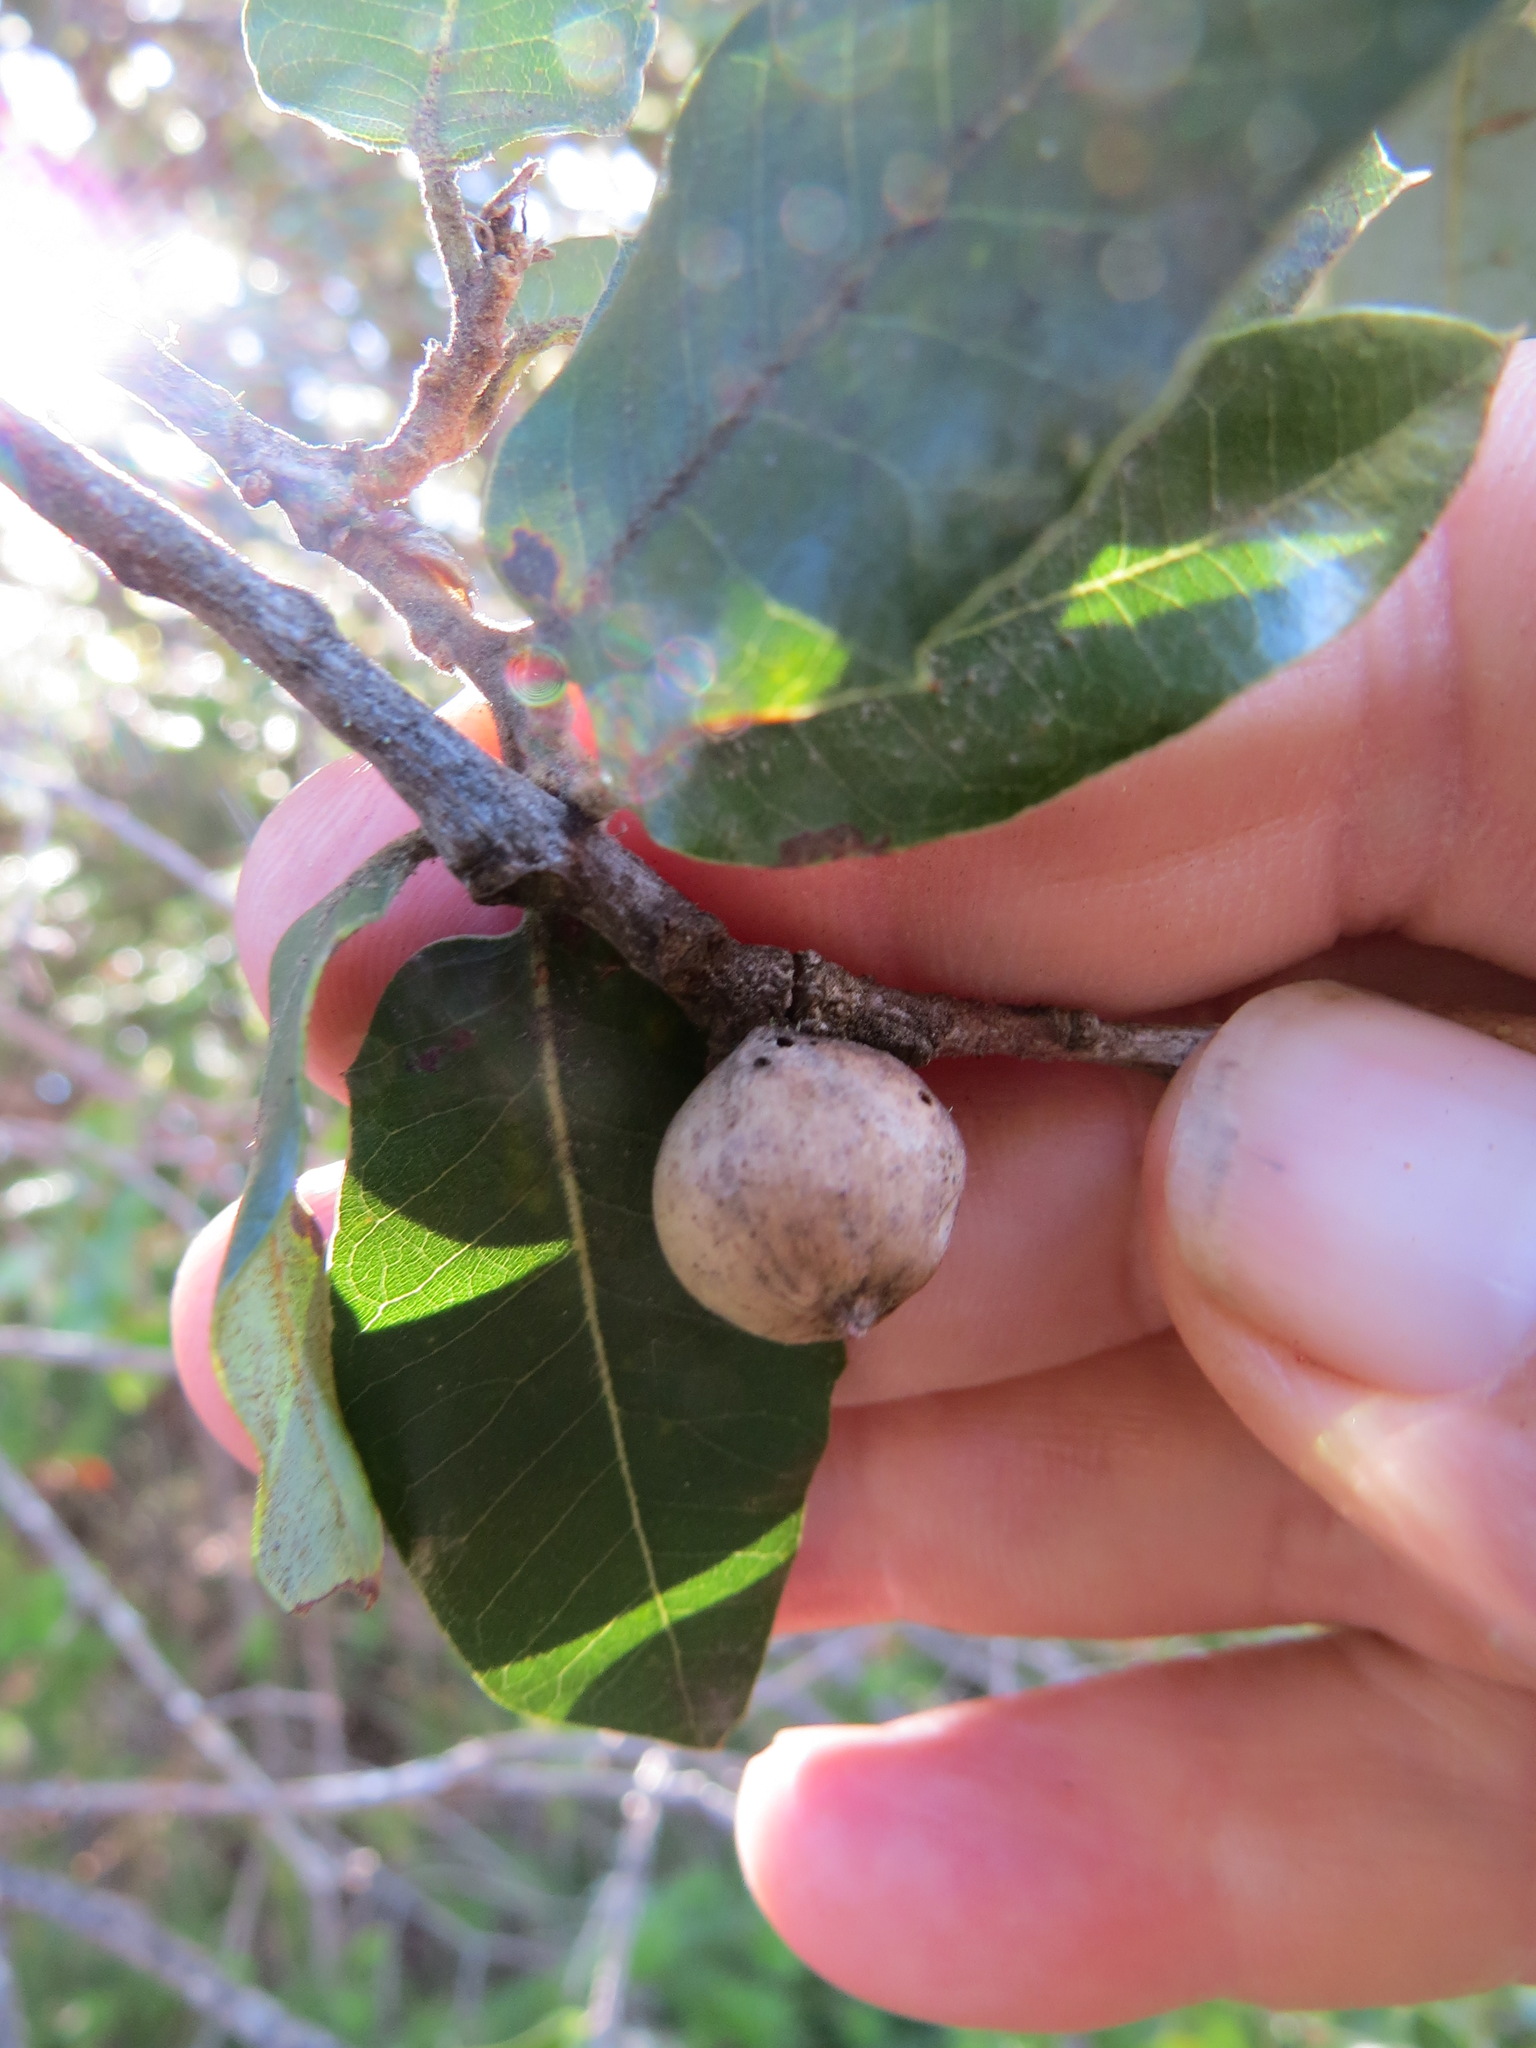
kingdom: Animalia
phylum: Arthropoda
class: Insecta
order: Hymenoptera
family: Cynipidae
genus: Heteroecus
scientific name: Heteroecus
